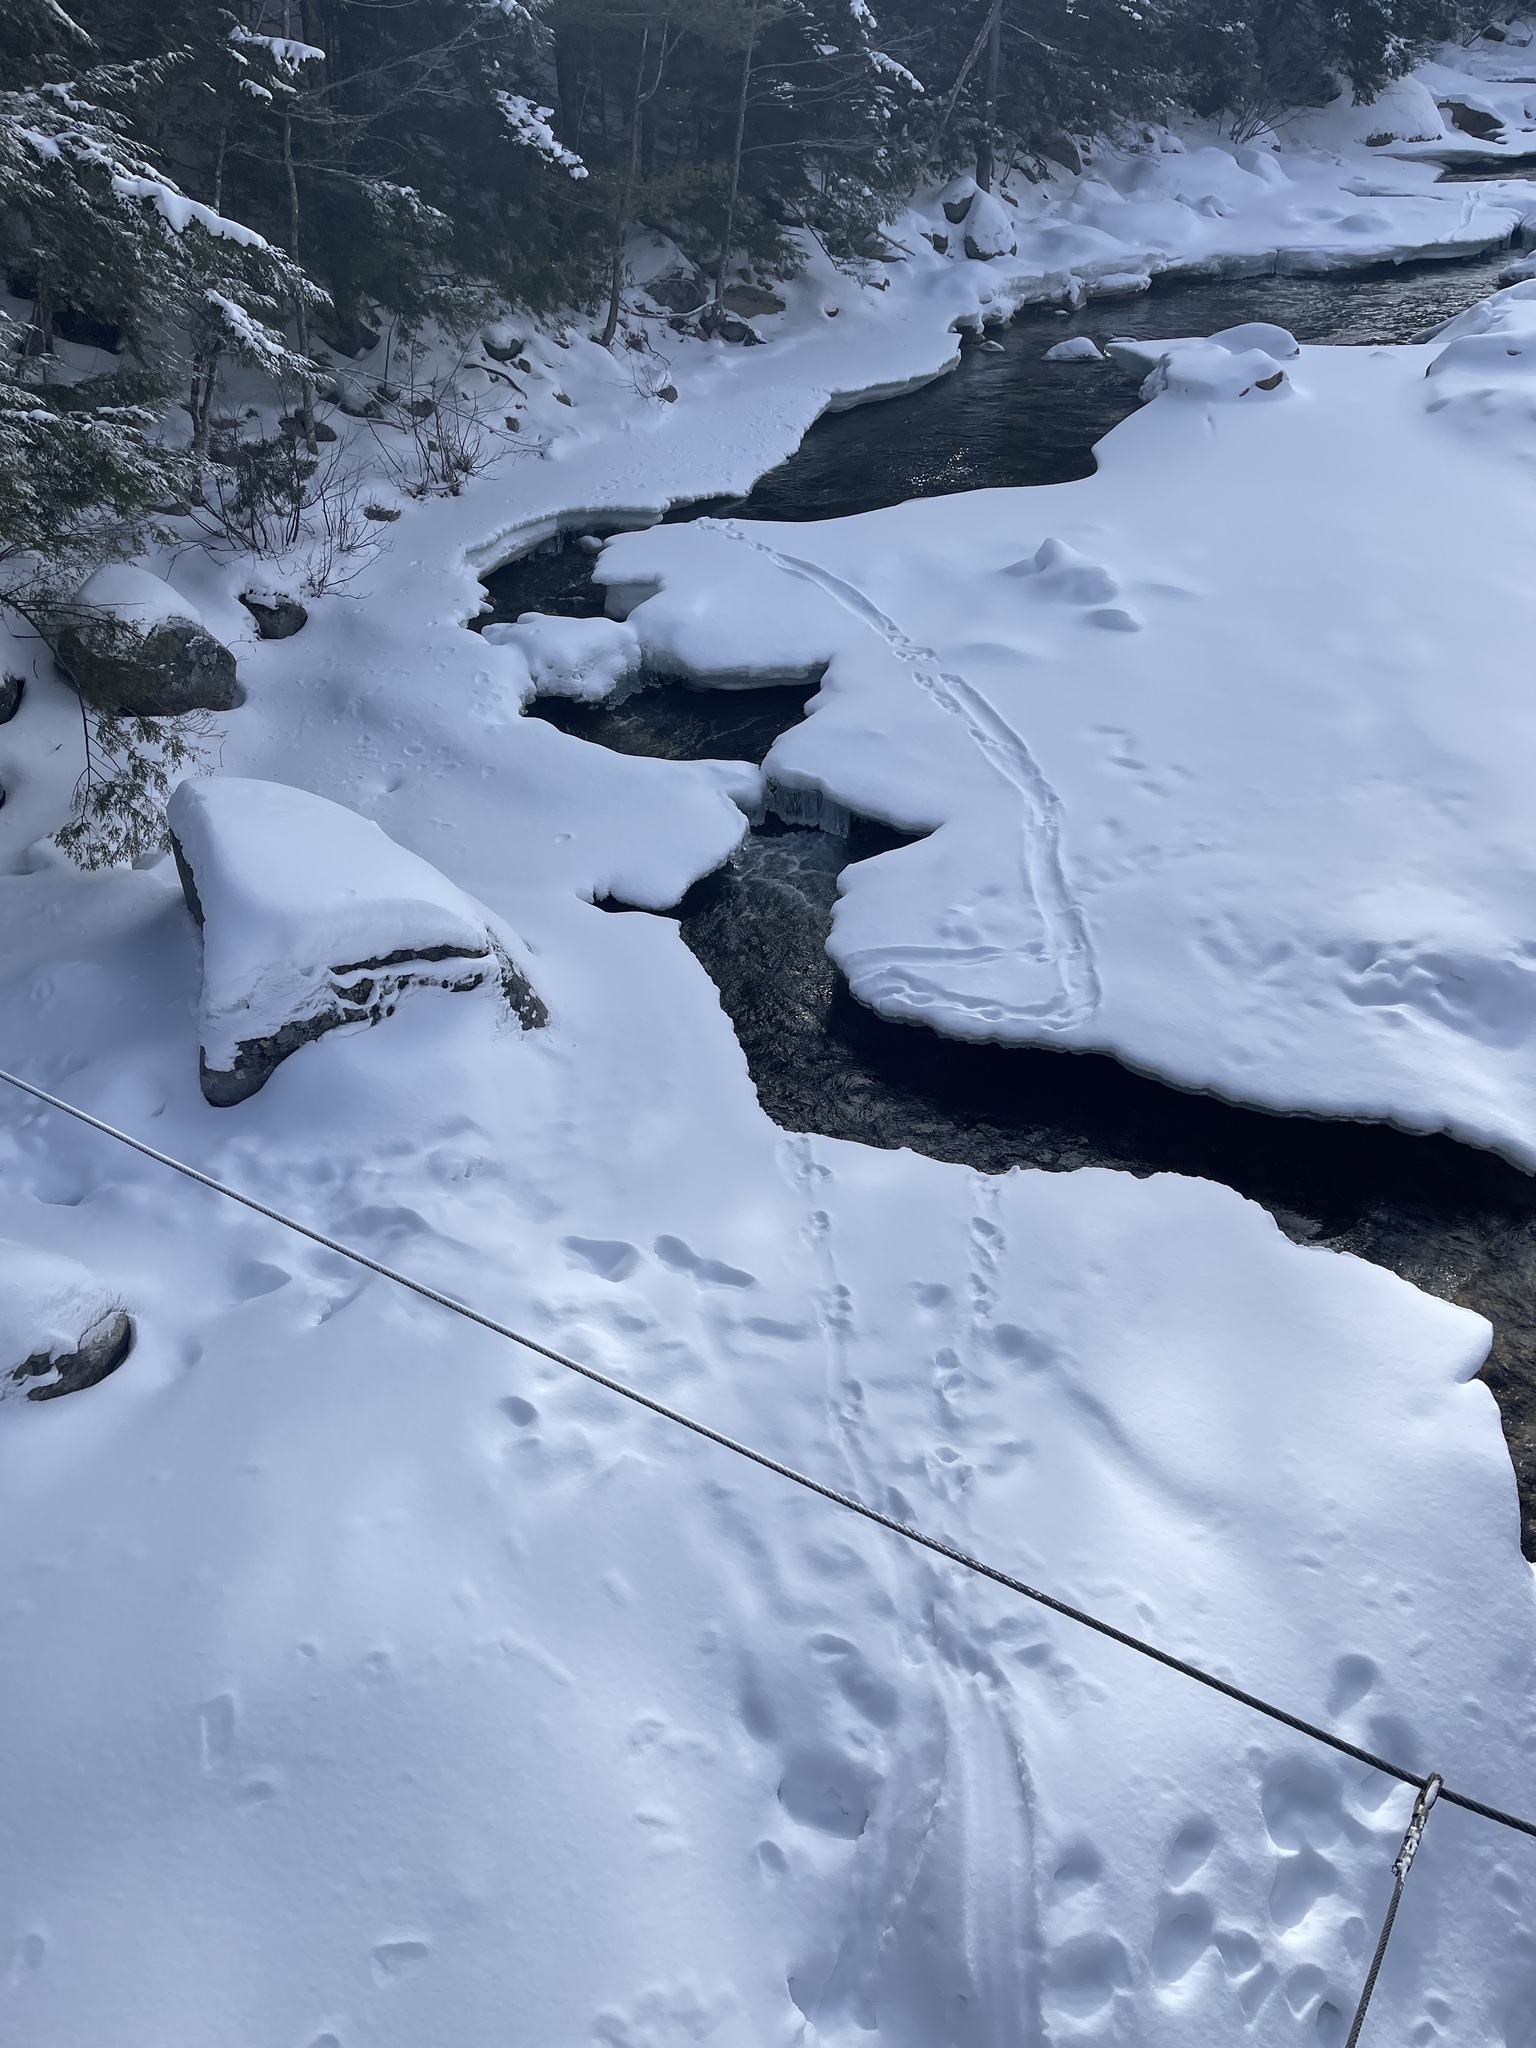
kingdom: Animalia
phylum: Chordata
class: Mammalia
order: Carnivora
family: Mustelidae
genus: Lontra
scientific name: Lontra canadensis
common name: North american river otter
